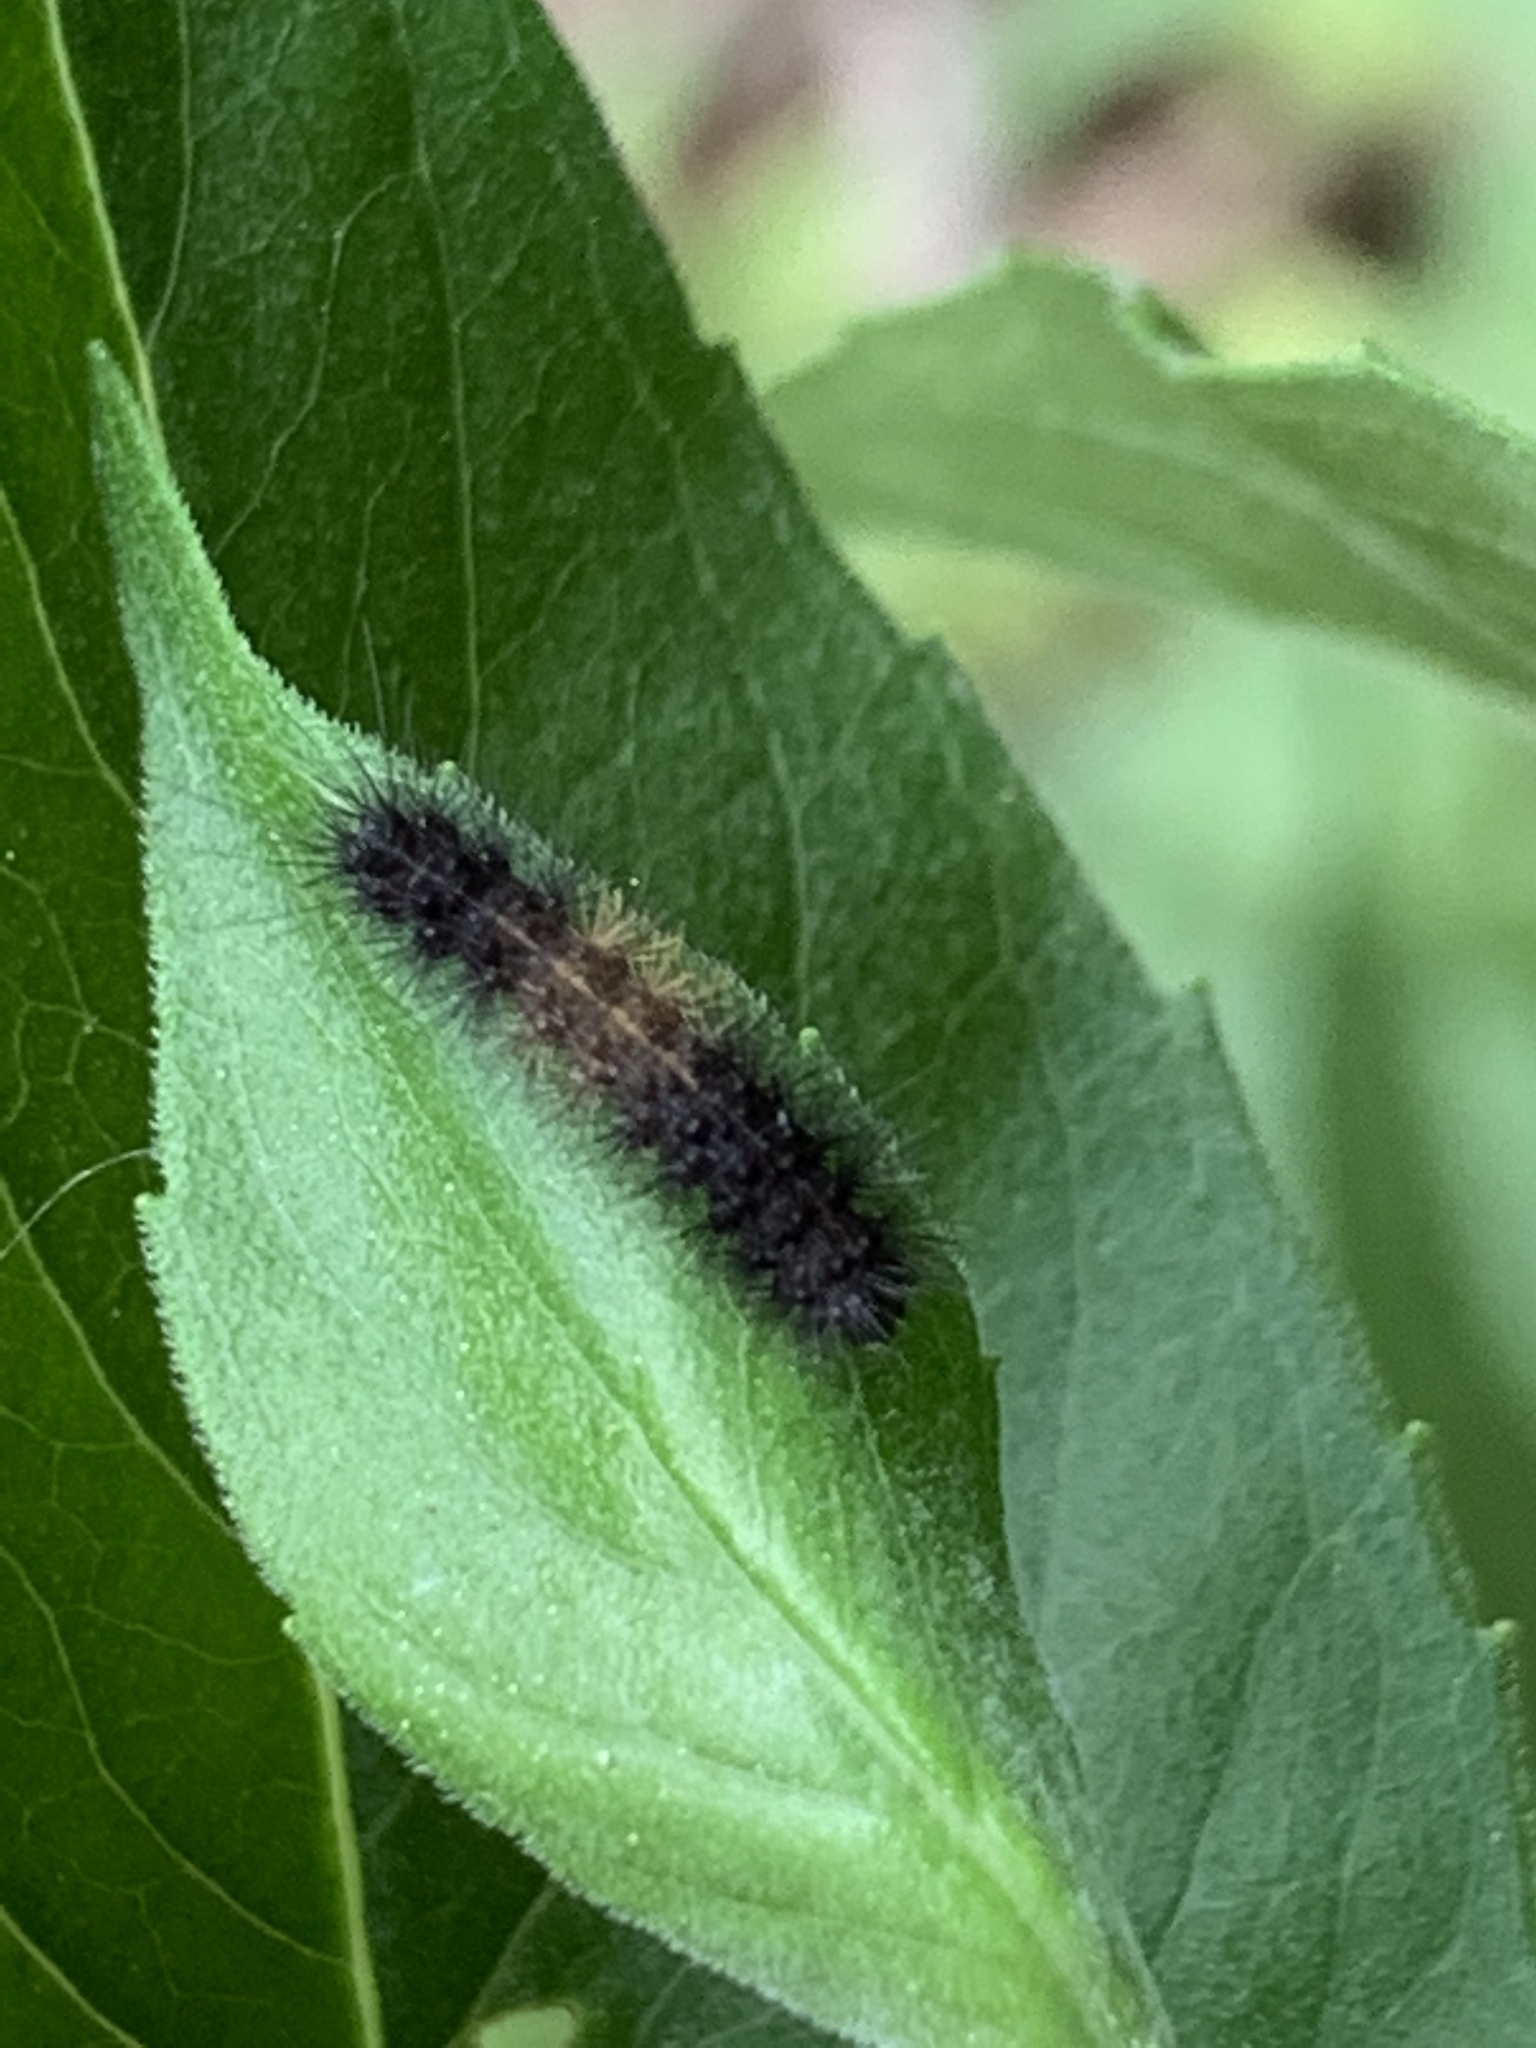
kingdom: Animalia
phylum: Arthropoda
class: Insecta
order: Lepidoptera
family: Erebidae
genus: Pyrrharctia
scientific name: Pyrrharctia isabella
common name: Isabella tiger moth
